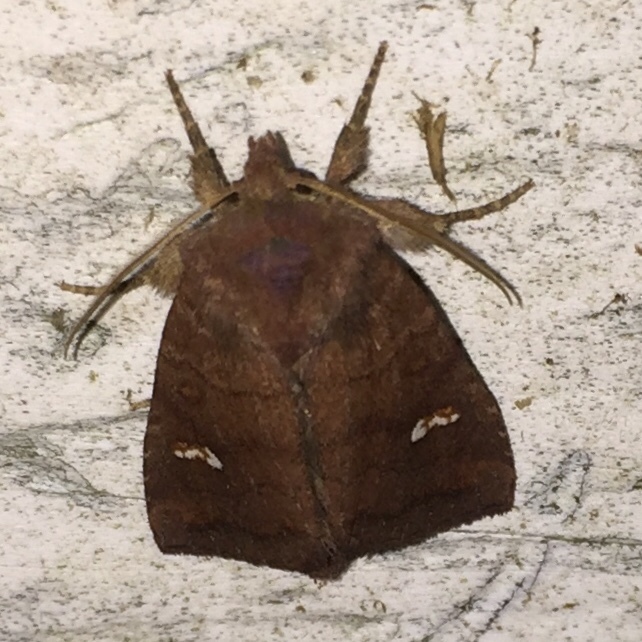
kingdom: Animalia
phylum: Arthropoda
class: Insecta
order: Lepidoptera
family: Noctuidae
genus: Tricholita
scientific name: Tricholita signata
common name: Signate quaker
